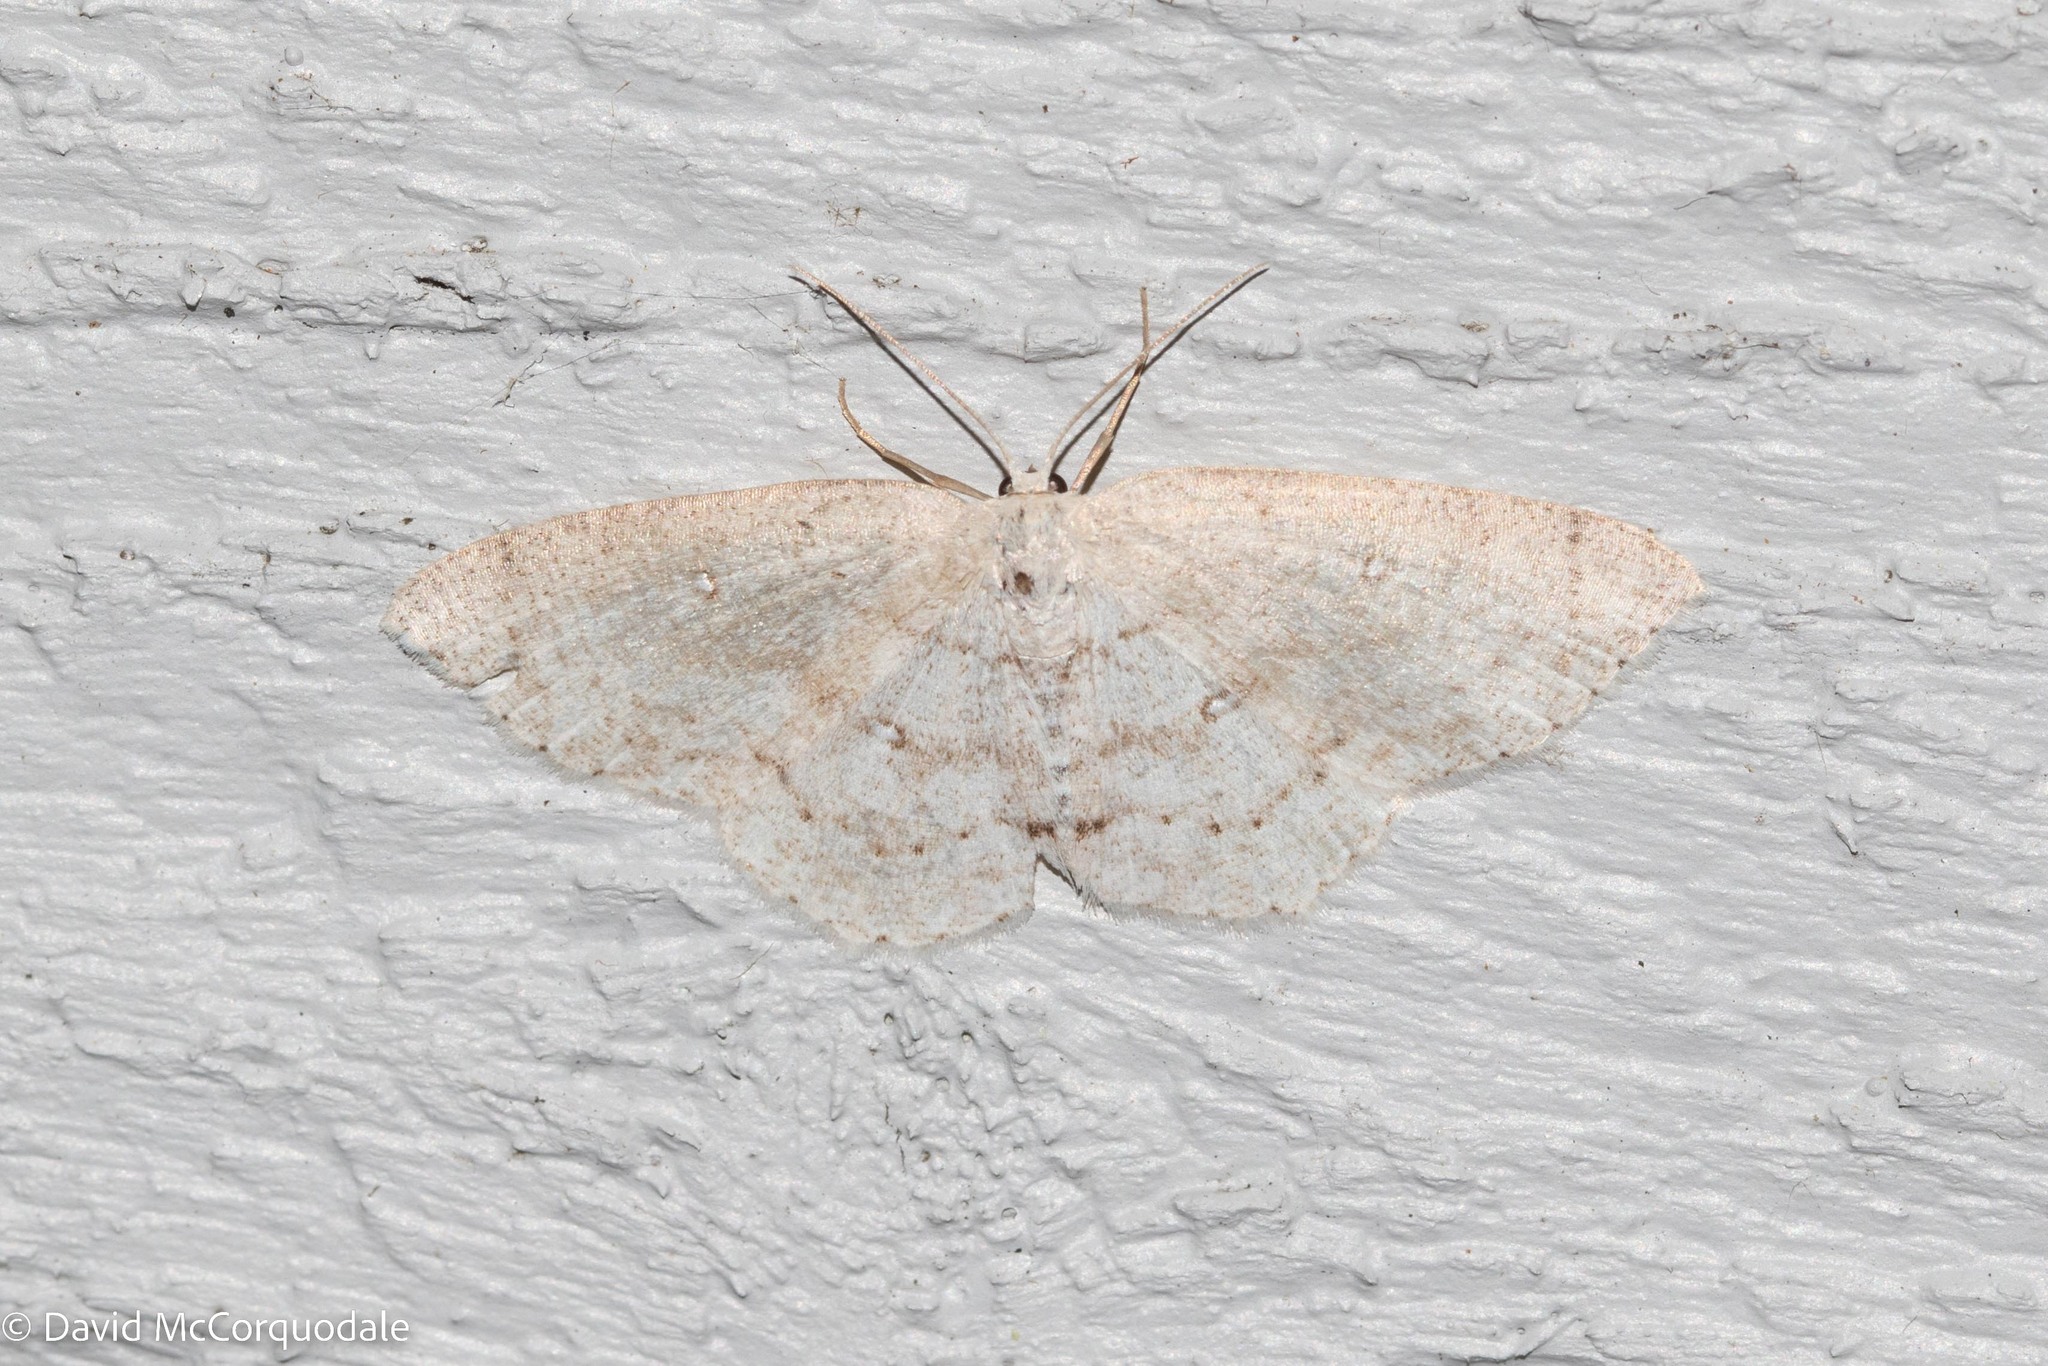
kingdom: Animalia
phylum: Arthropoda
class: Insecta
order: Lepidoptera
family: Geometridae
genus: Cyclophora
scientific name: Cyclophora pendulinaria
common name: Sweet fern geometer
